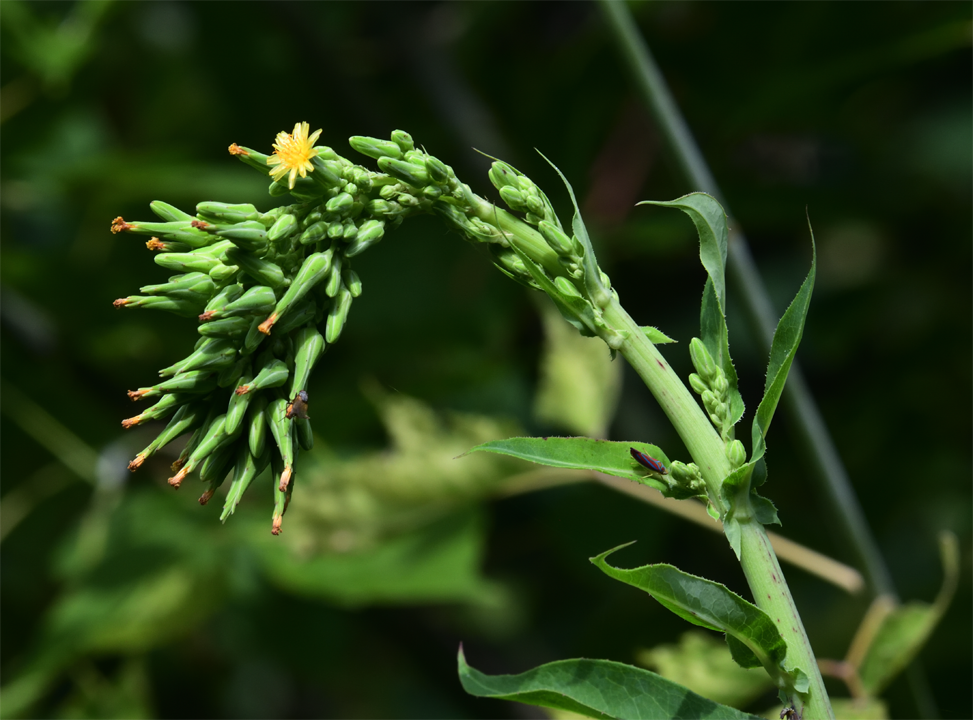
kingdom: Plantae
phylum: Tracheophyta
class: Magnoliopsida
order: Asterales
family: Asteraceae
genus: Lactuca
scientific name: Lactuca canadensis
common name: Canada lettuce
